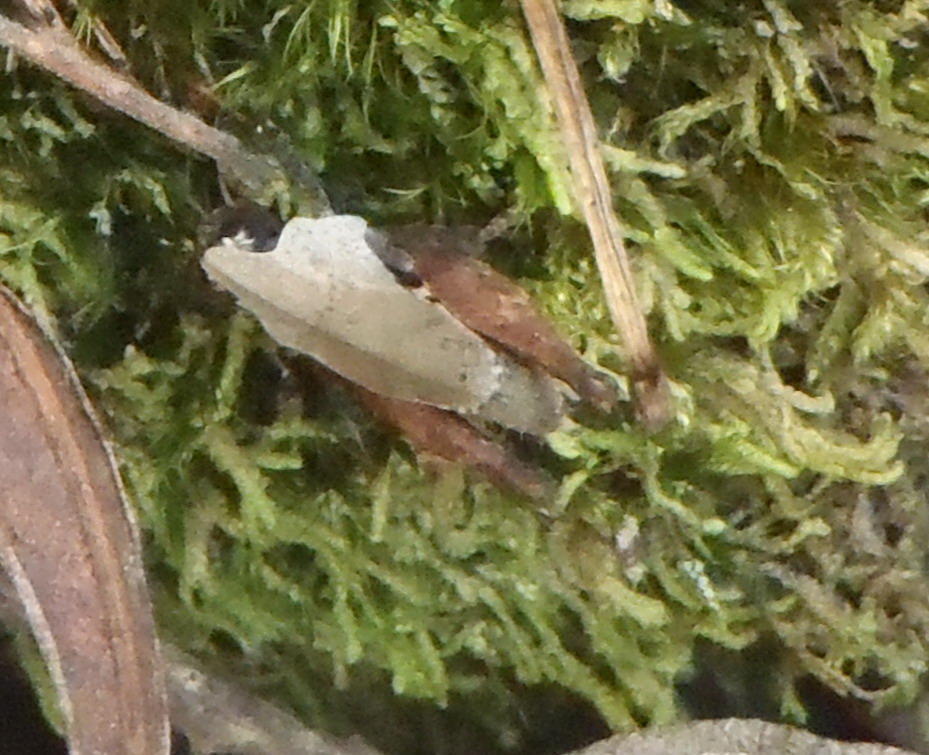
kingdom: Animalia
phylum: Arthropoda
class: Insecta
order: Orthoptera
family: Tetrigidae
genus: Ascetotettix
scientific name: Ascetotettix capensis
